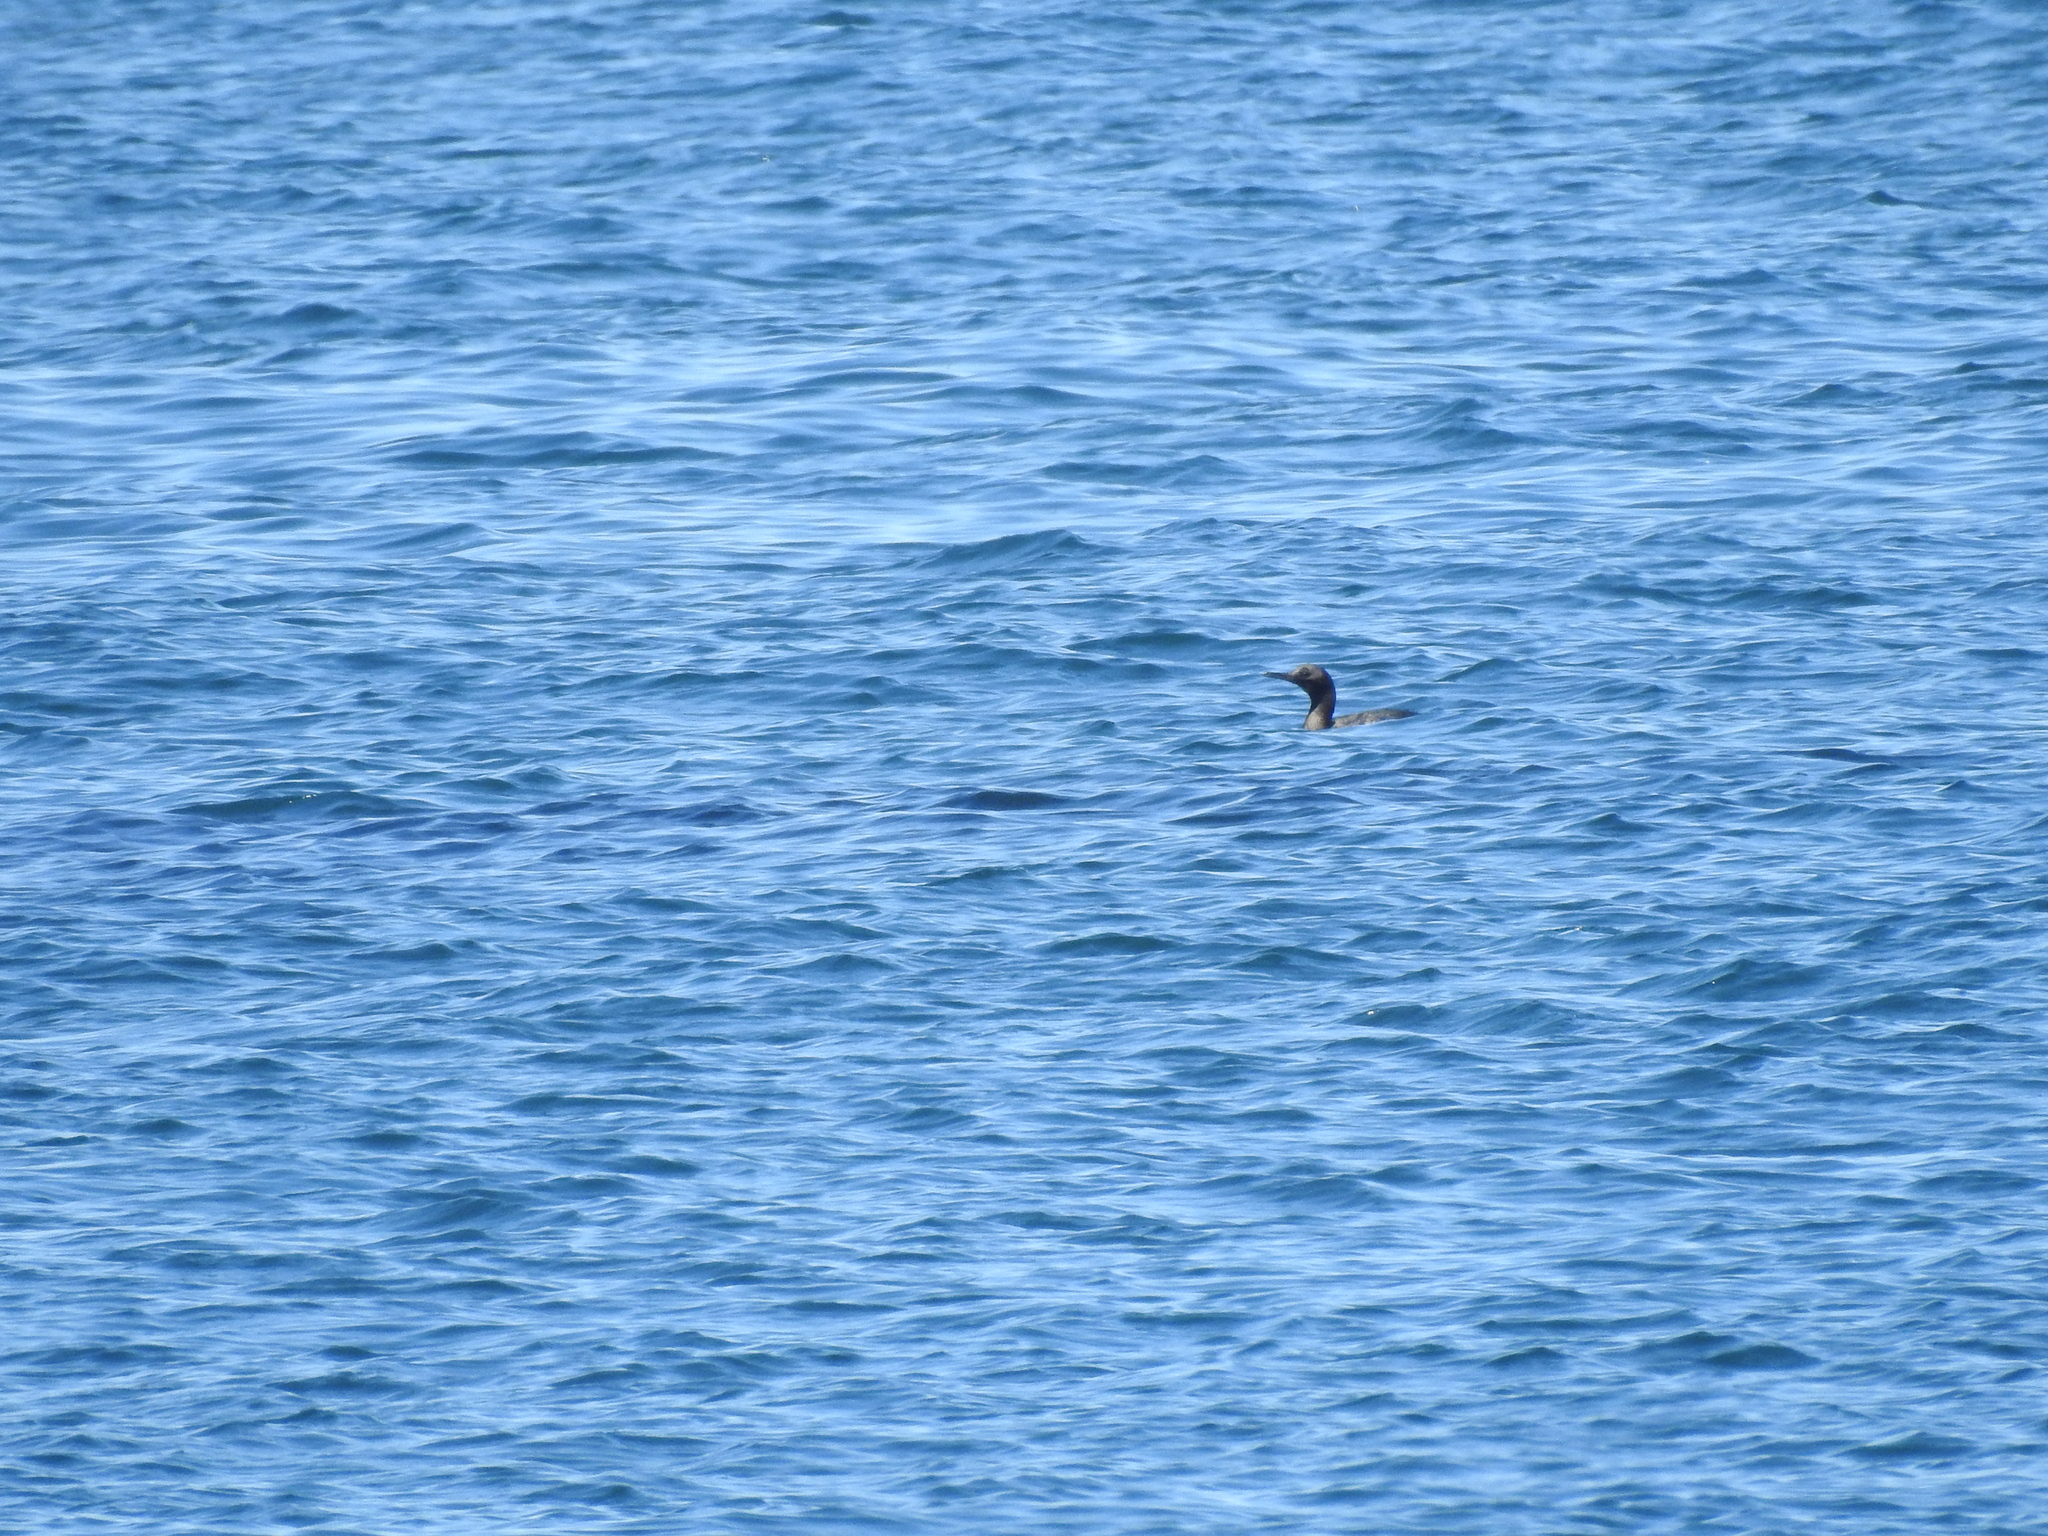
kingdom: Animalia
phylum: Chordata
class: Aves
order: Suliformes
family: Phalacrocoracidae
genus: Urile
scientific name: Urile
